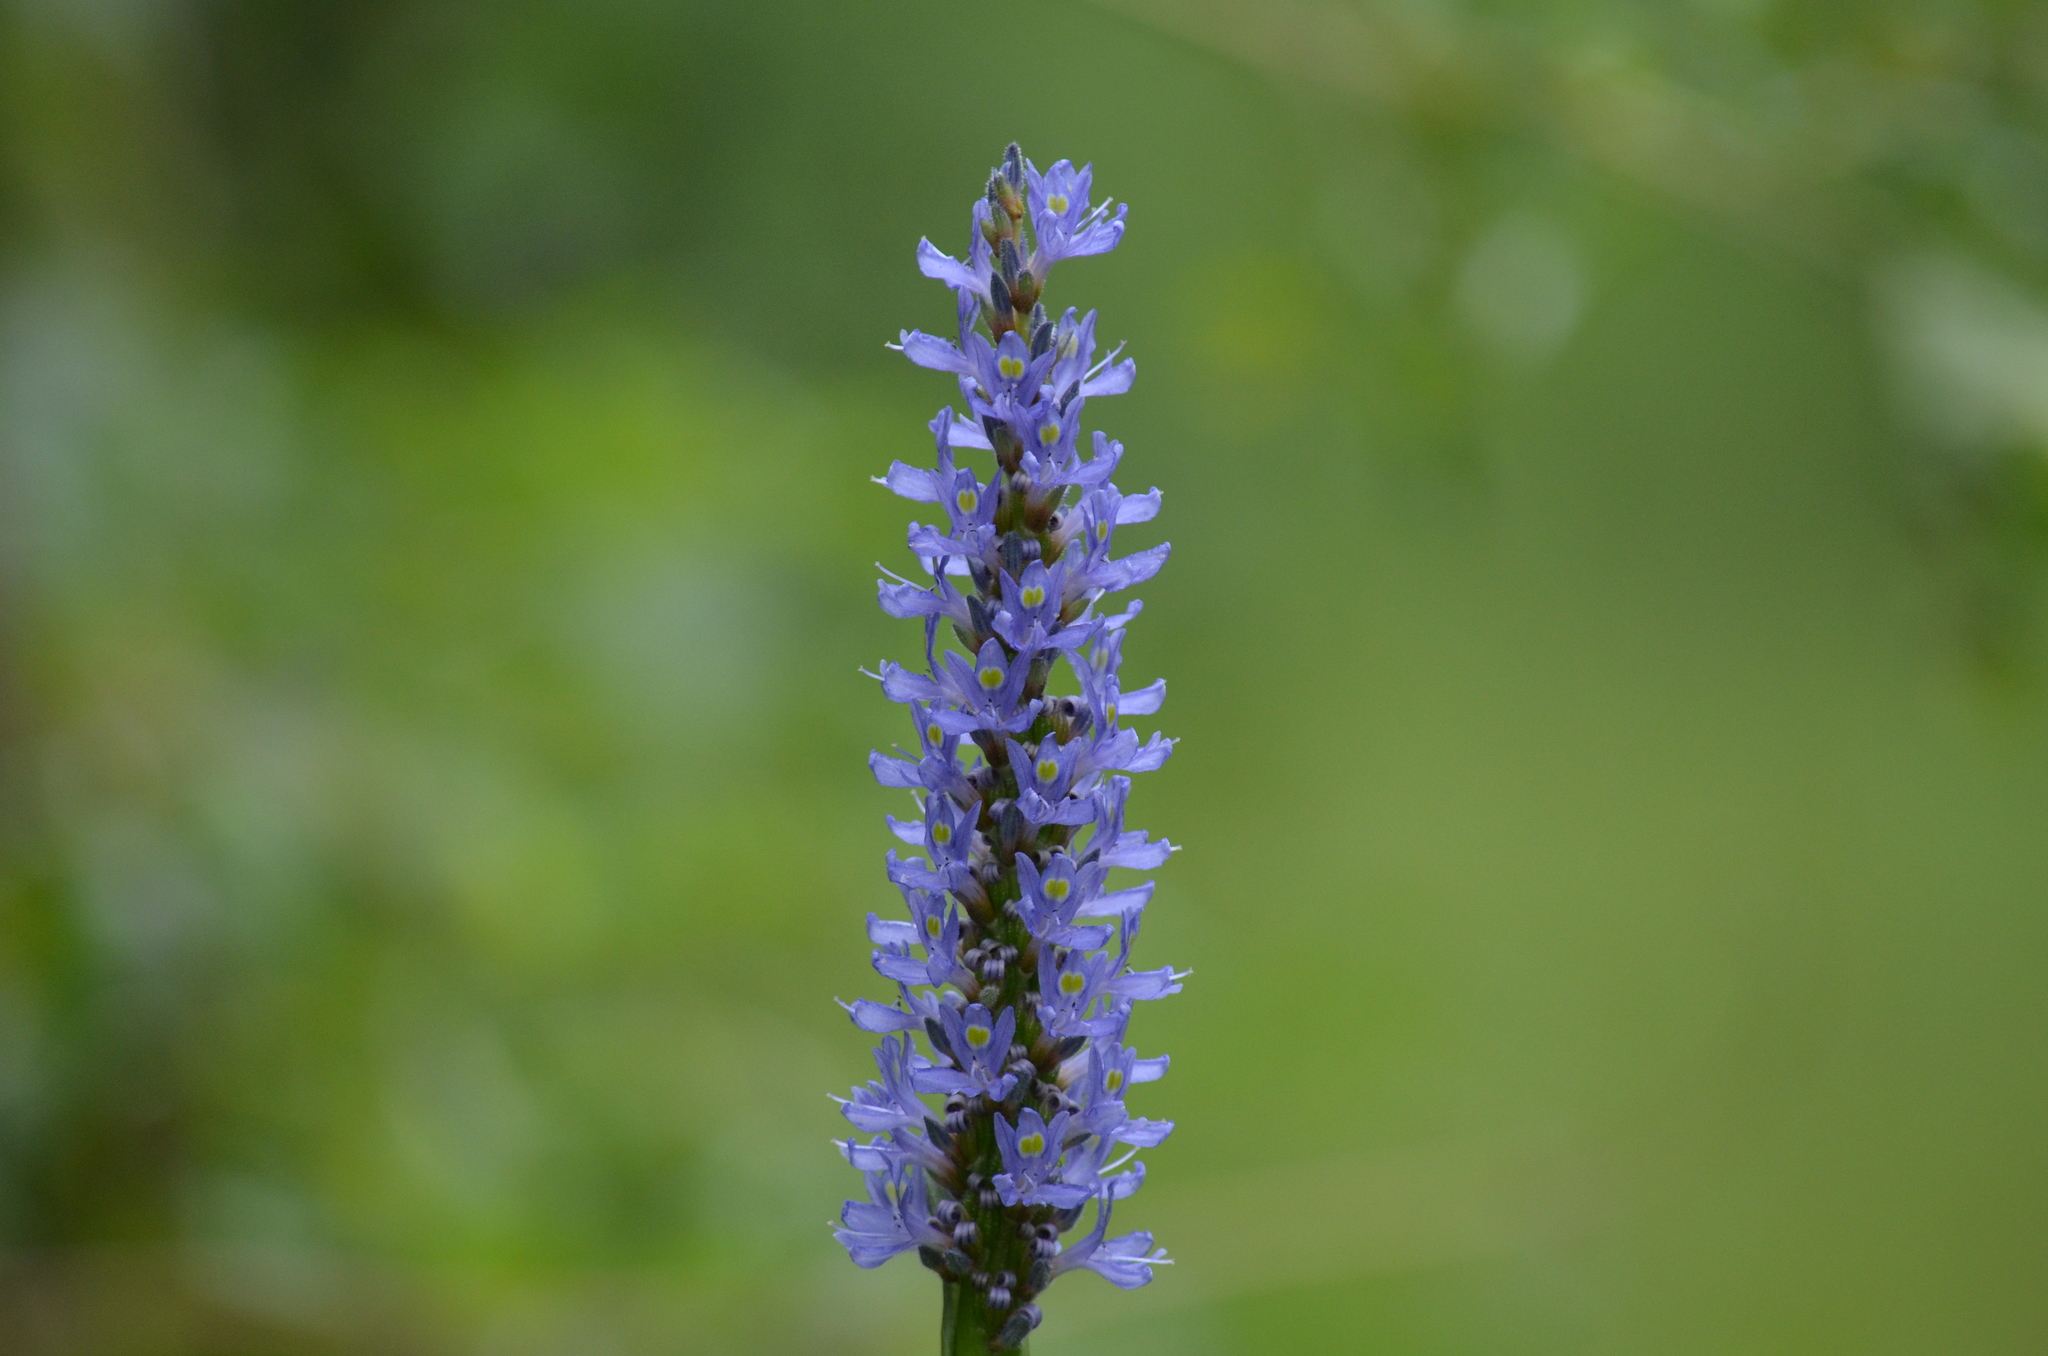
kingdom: Plantae
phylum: Tracheophyta
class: Liliopsida
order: Commelinales
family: Pontederiaceae
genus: Pontederia
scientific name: Pontederia cordata
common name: Pickerelweed
